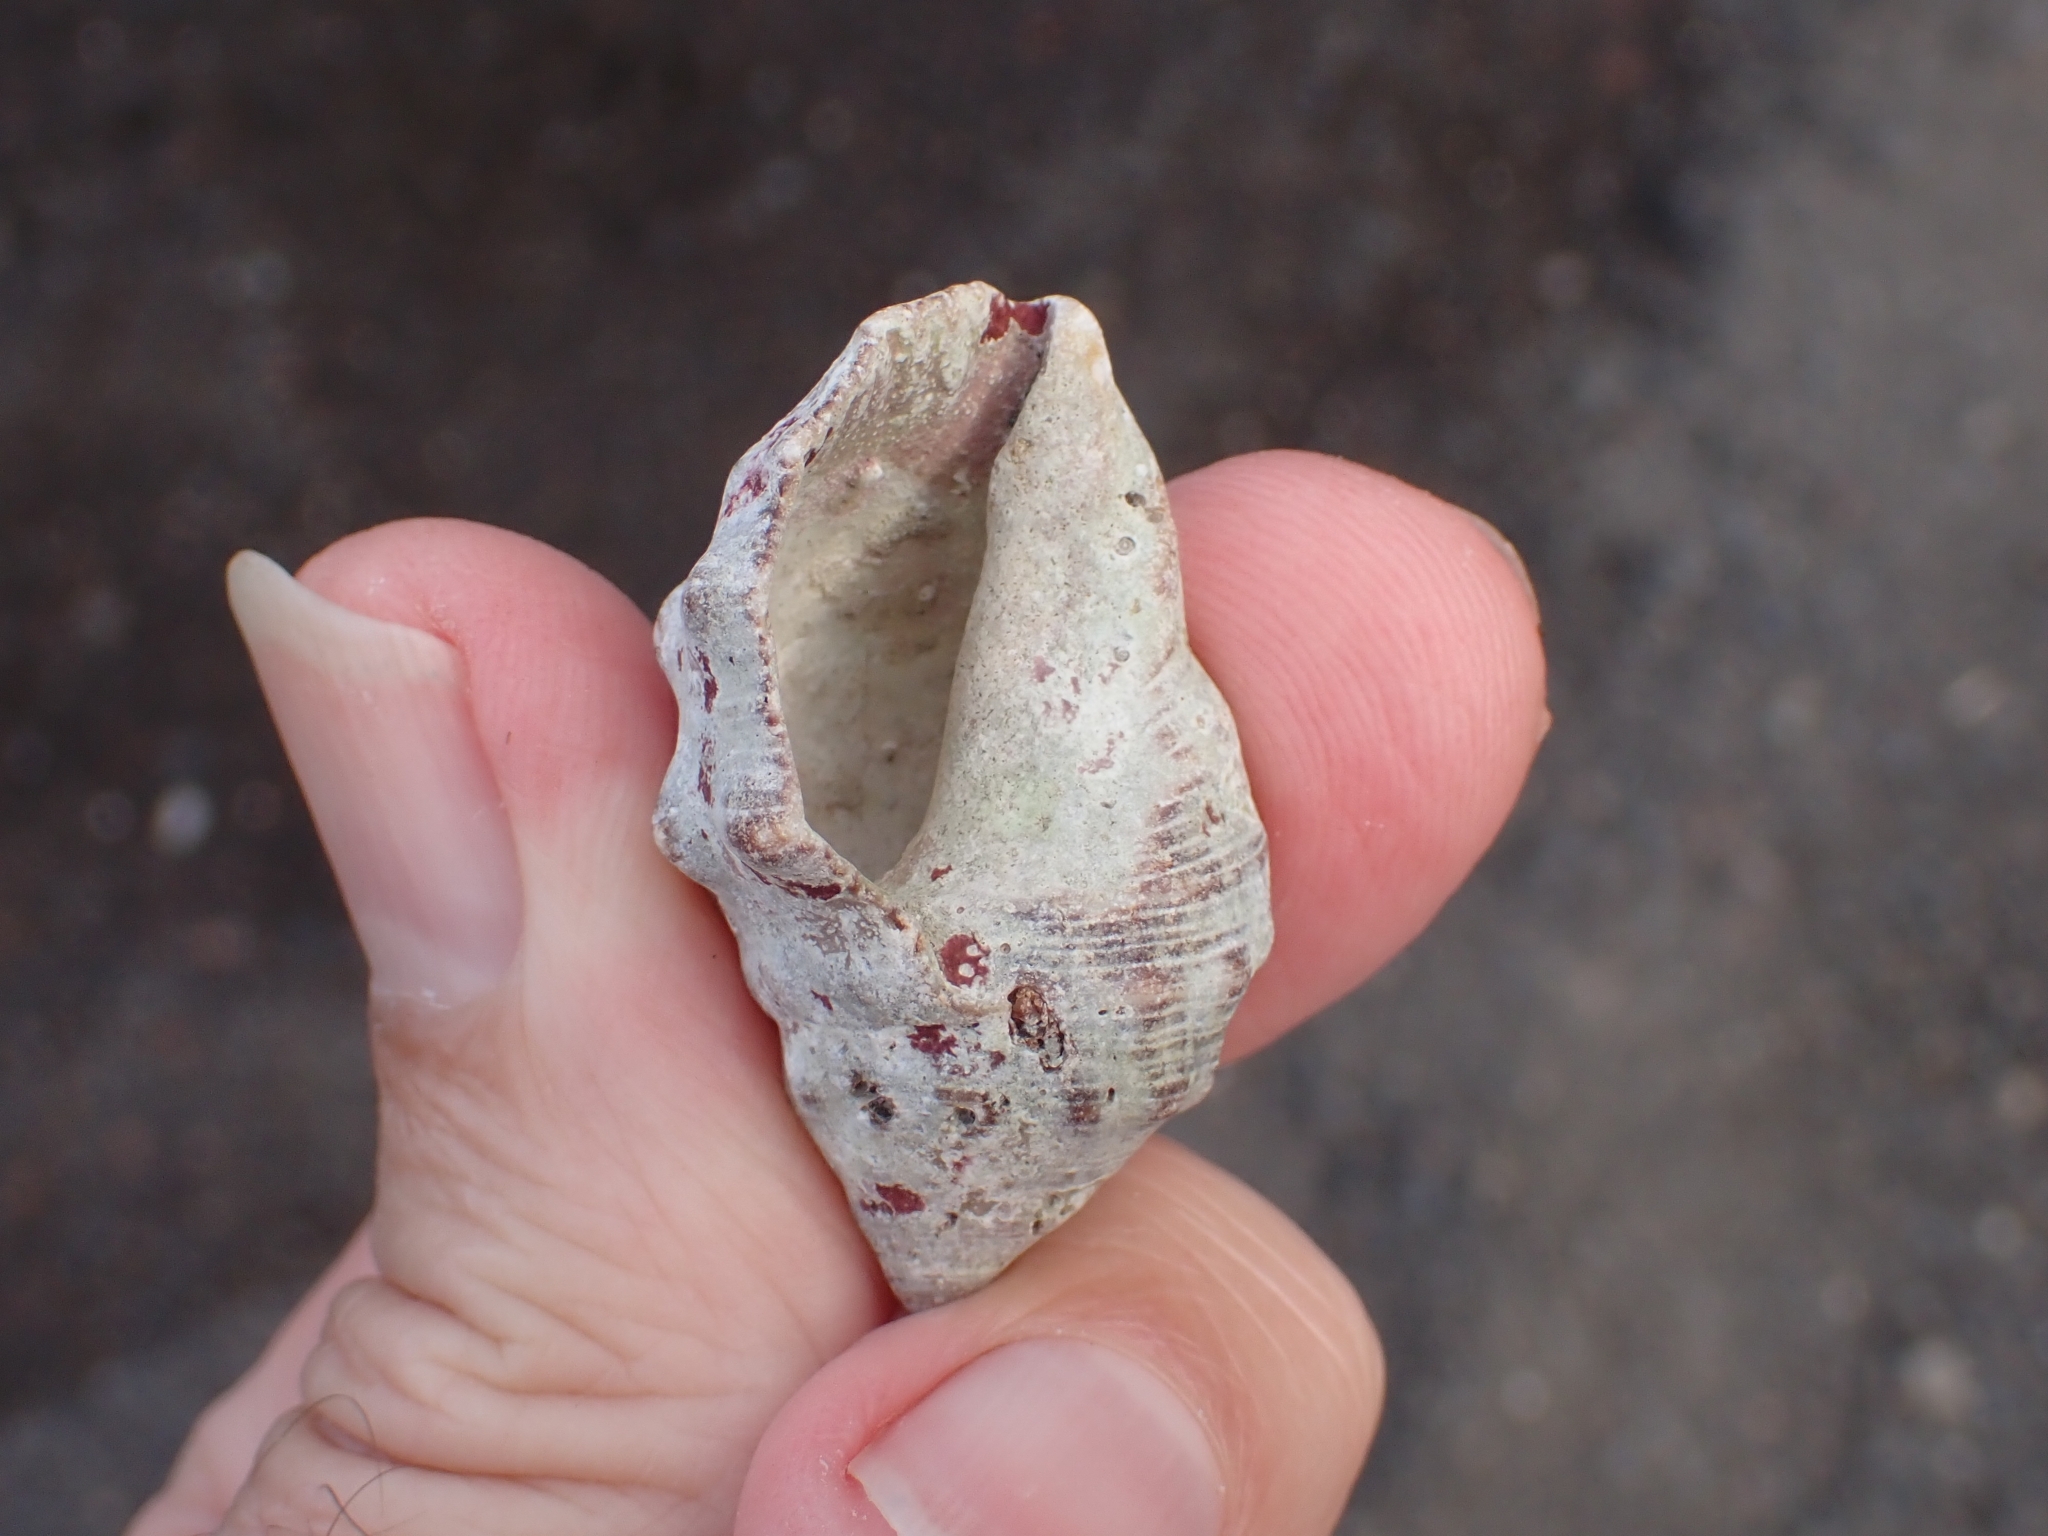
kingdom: Animalia
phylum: Mollusca
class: Gastropoda
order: Neogastropoda
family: Muricidae
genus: Stramonita
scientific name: Stramonita haemastoma
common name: Florida dog winkle
